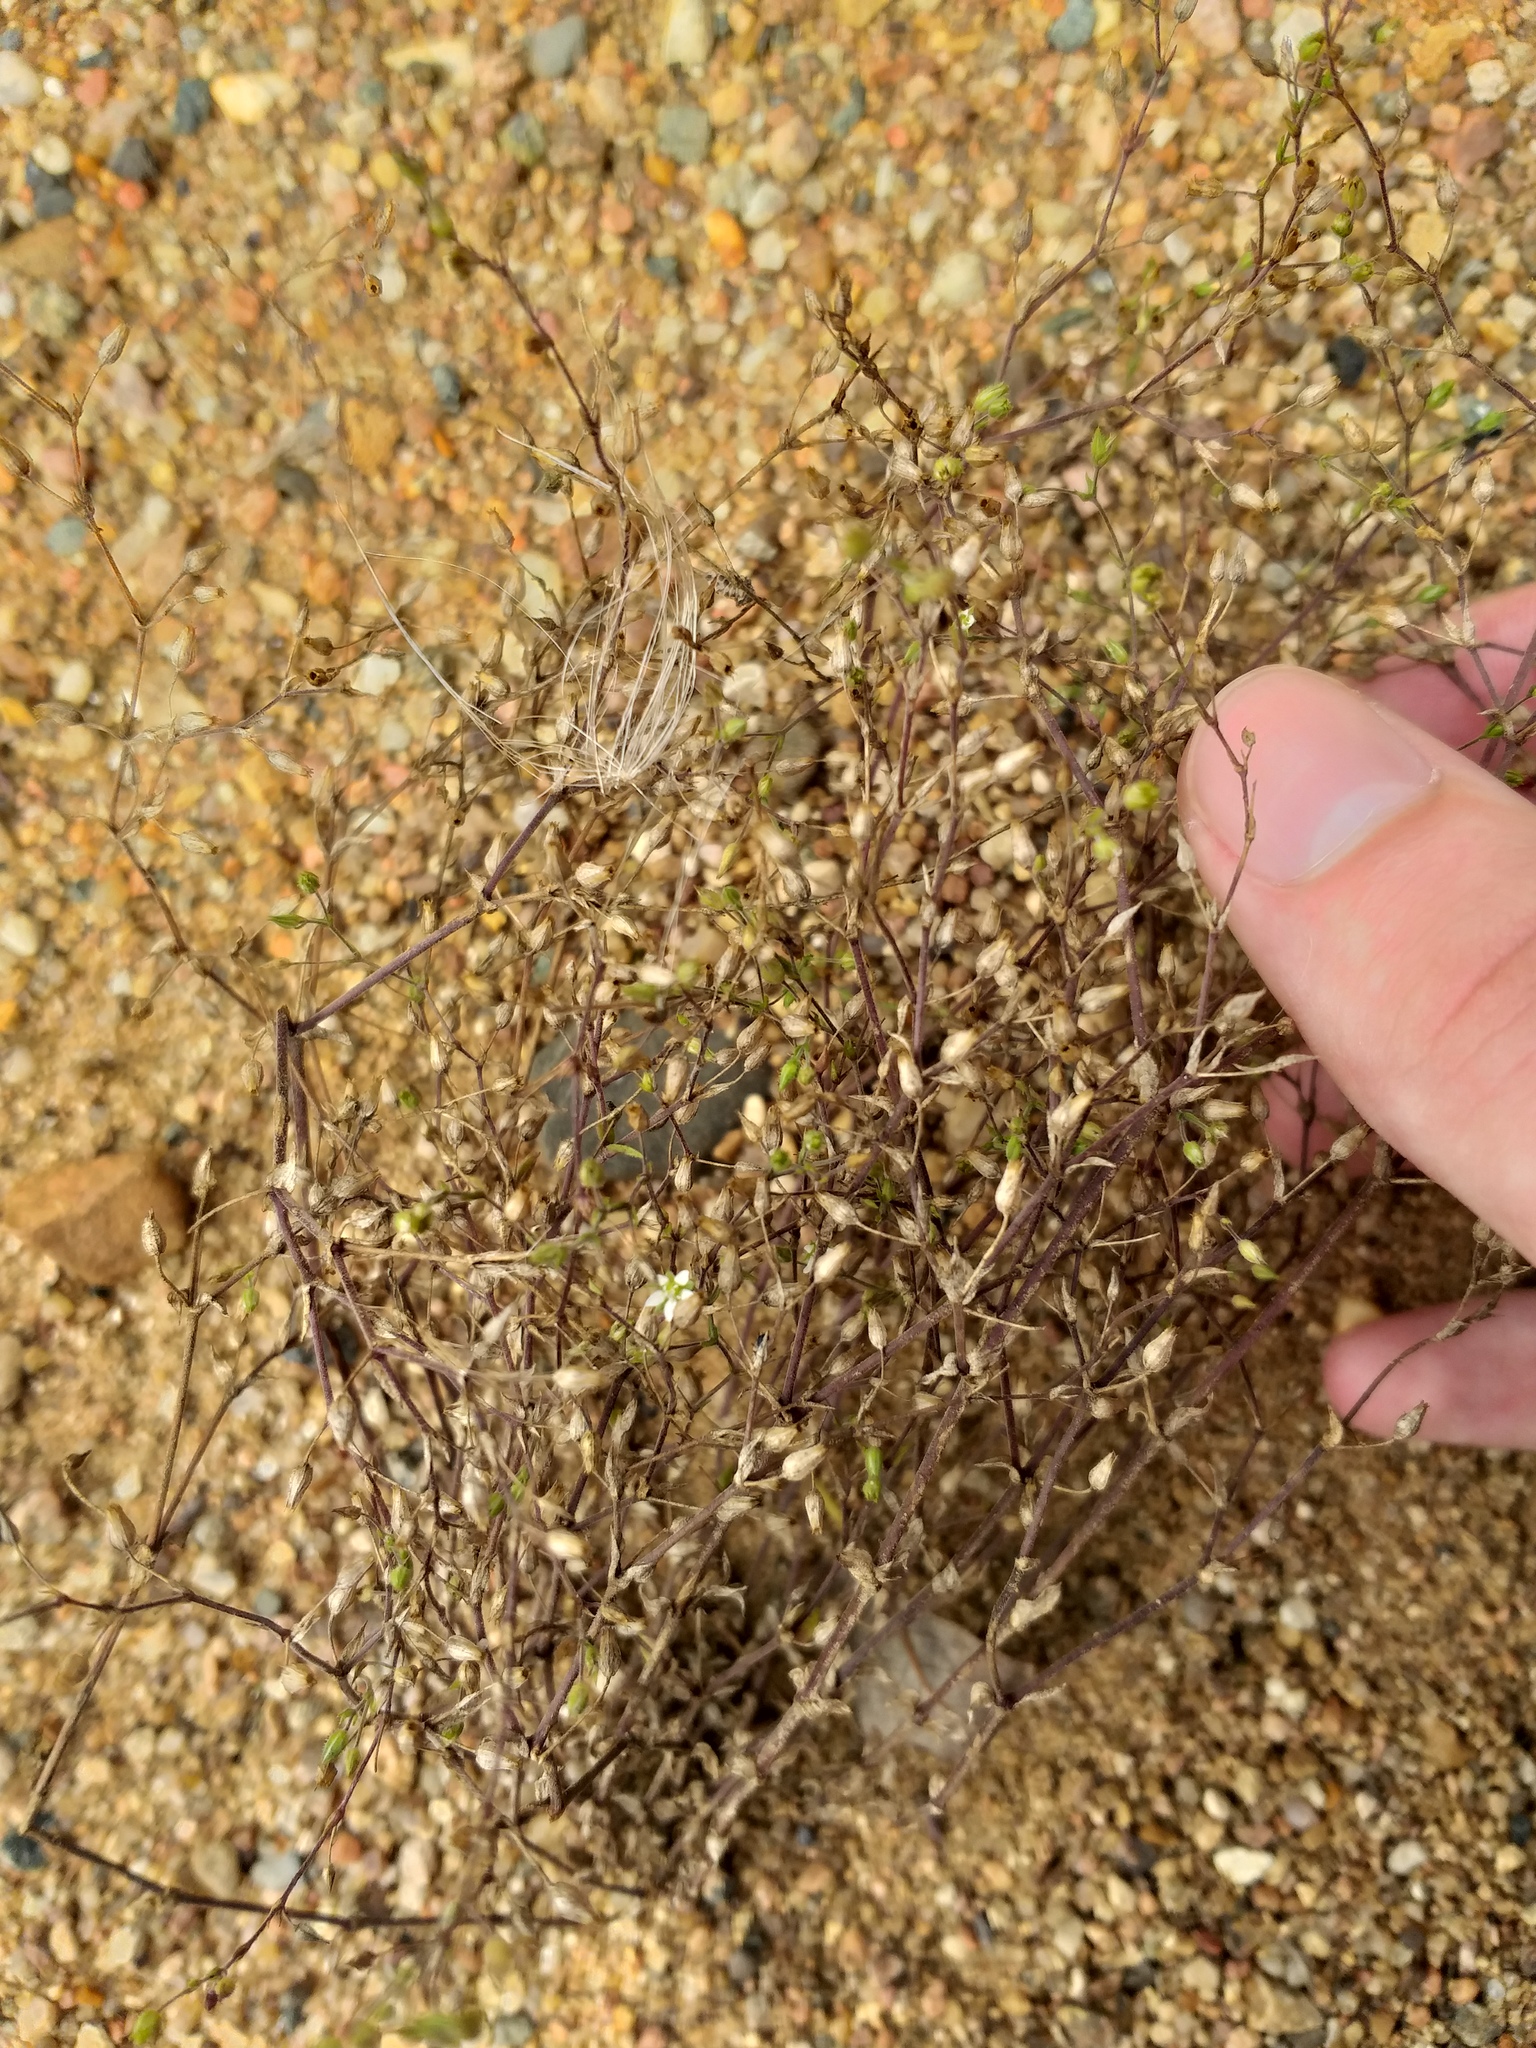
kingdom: Plantae
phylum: Tracheophyta
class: Magnoliopsida
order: Caryophyllales
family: Caryophyllaceae
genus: Arenaria
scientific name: Arenaria serpyllifolia
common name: Thyme-leaved sandwort
